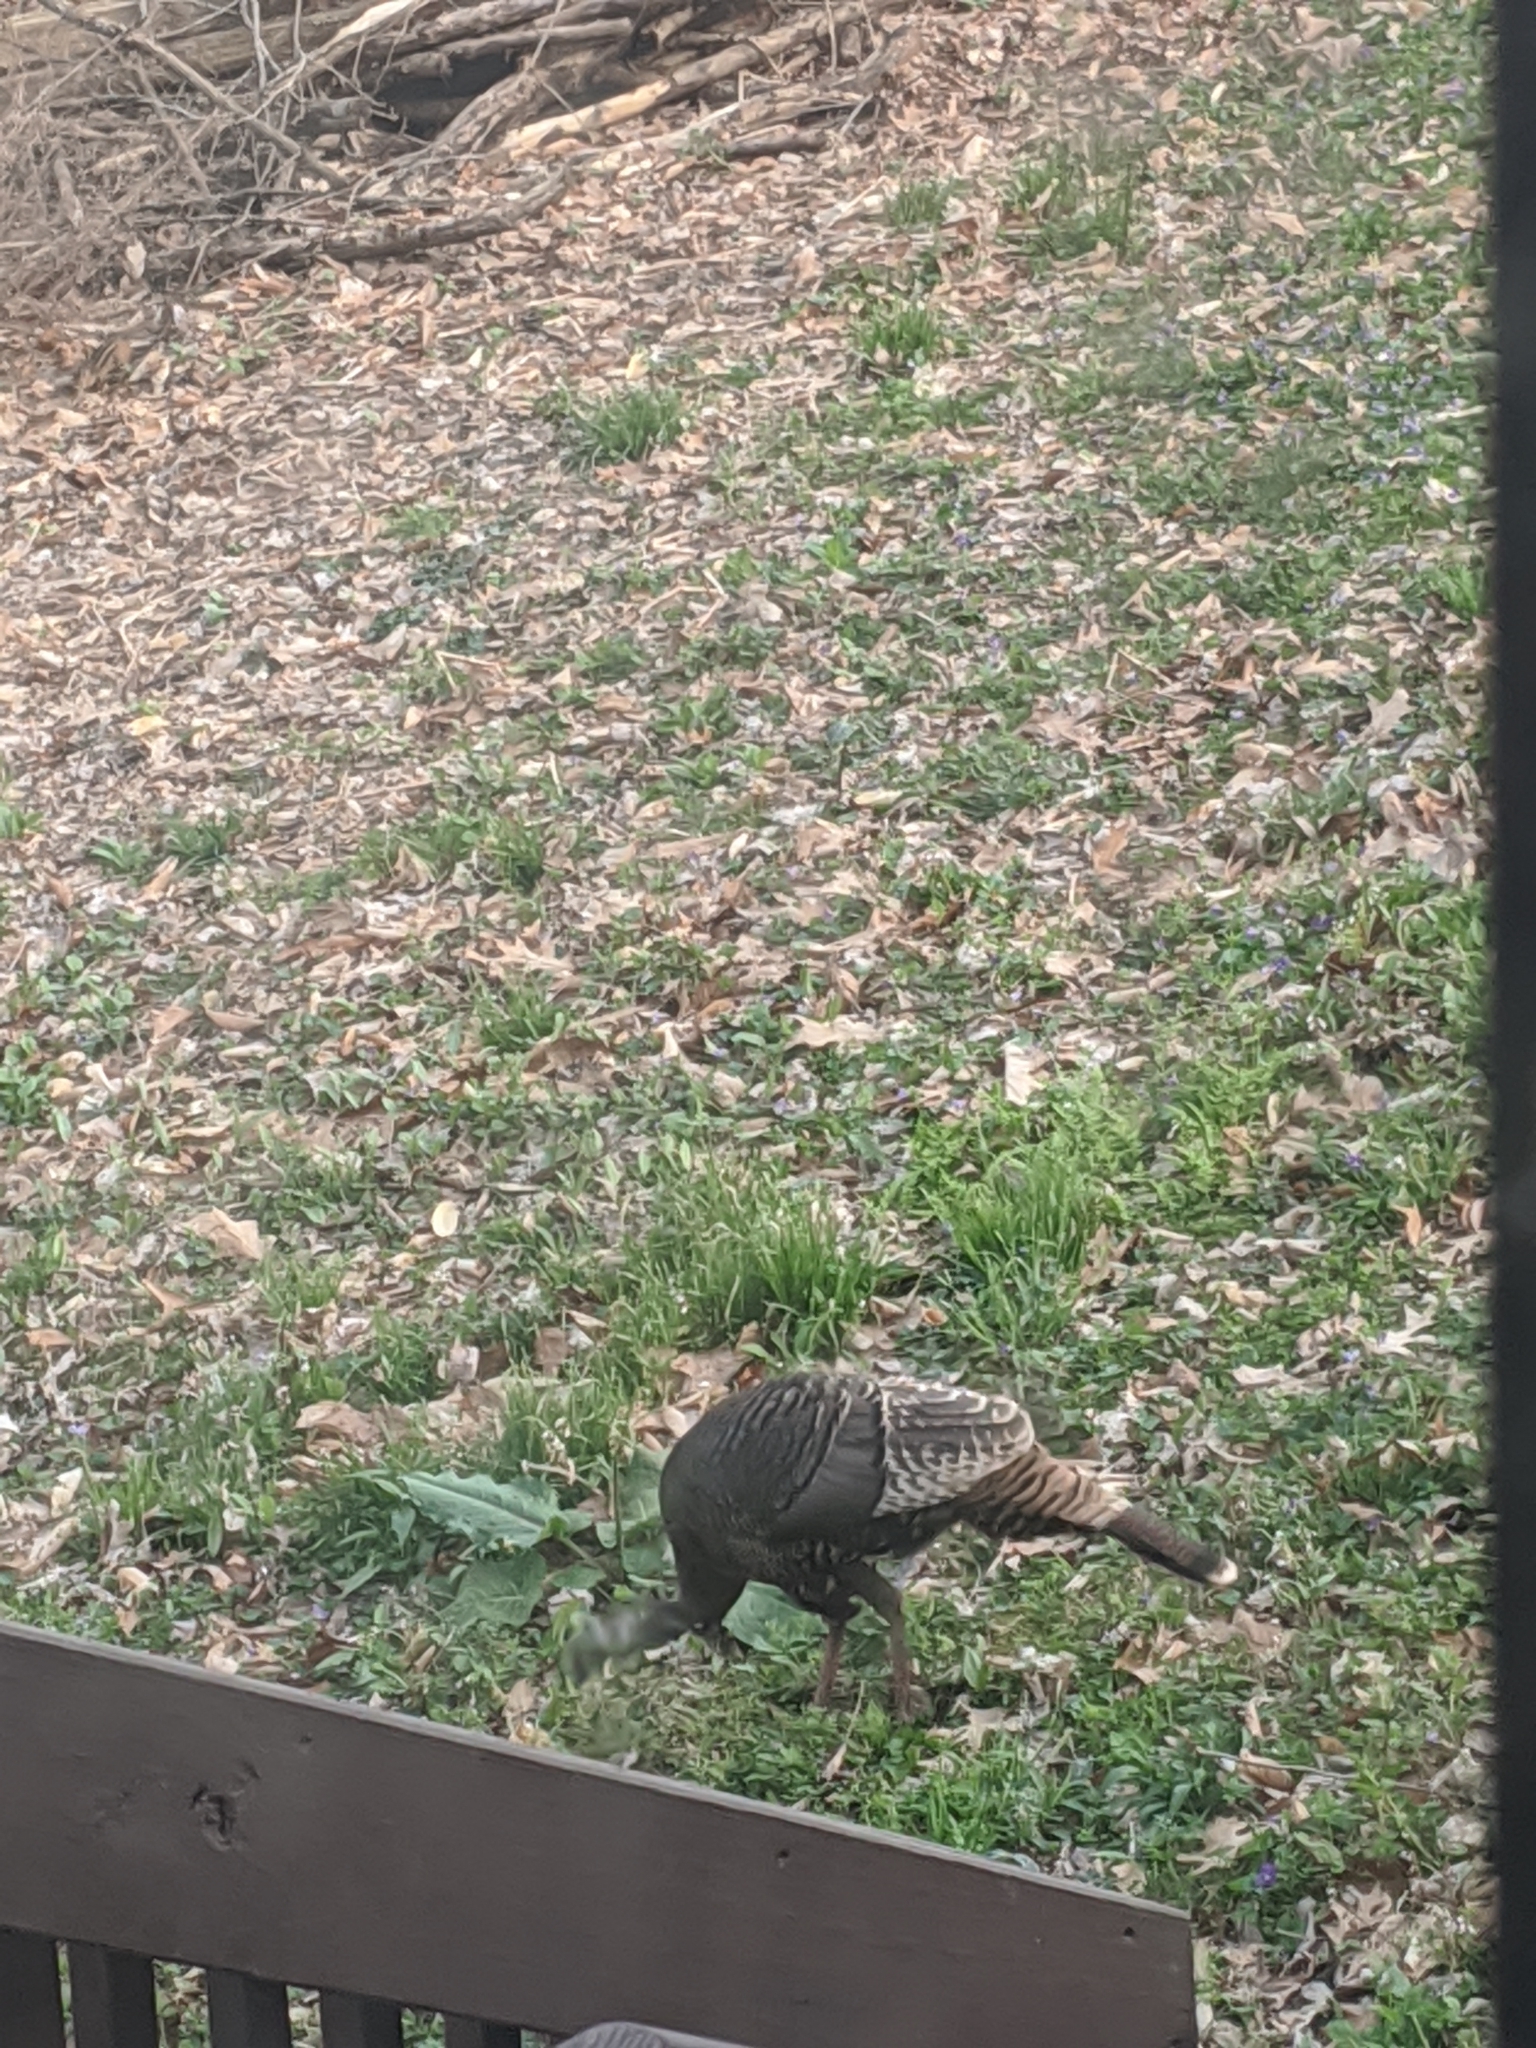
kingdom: Animalia
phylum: Chordata
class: Aves
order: Galliformes
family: Phasianidae
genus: Meleagris
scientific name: Meleagris gallopavo
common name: Wild turkey
